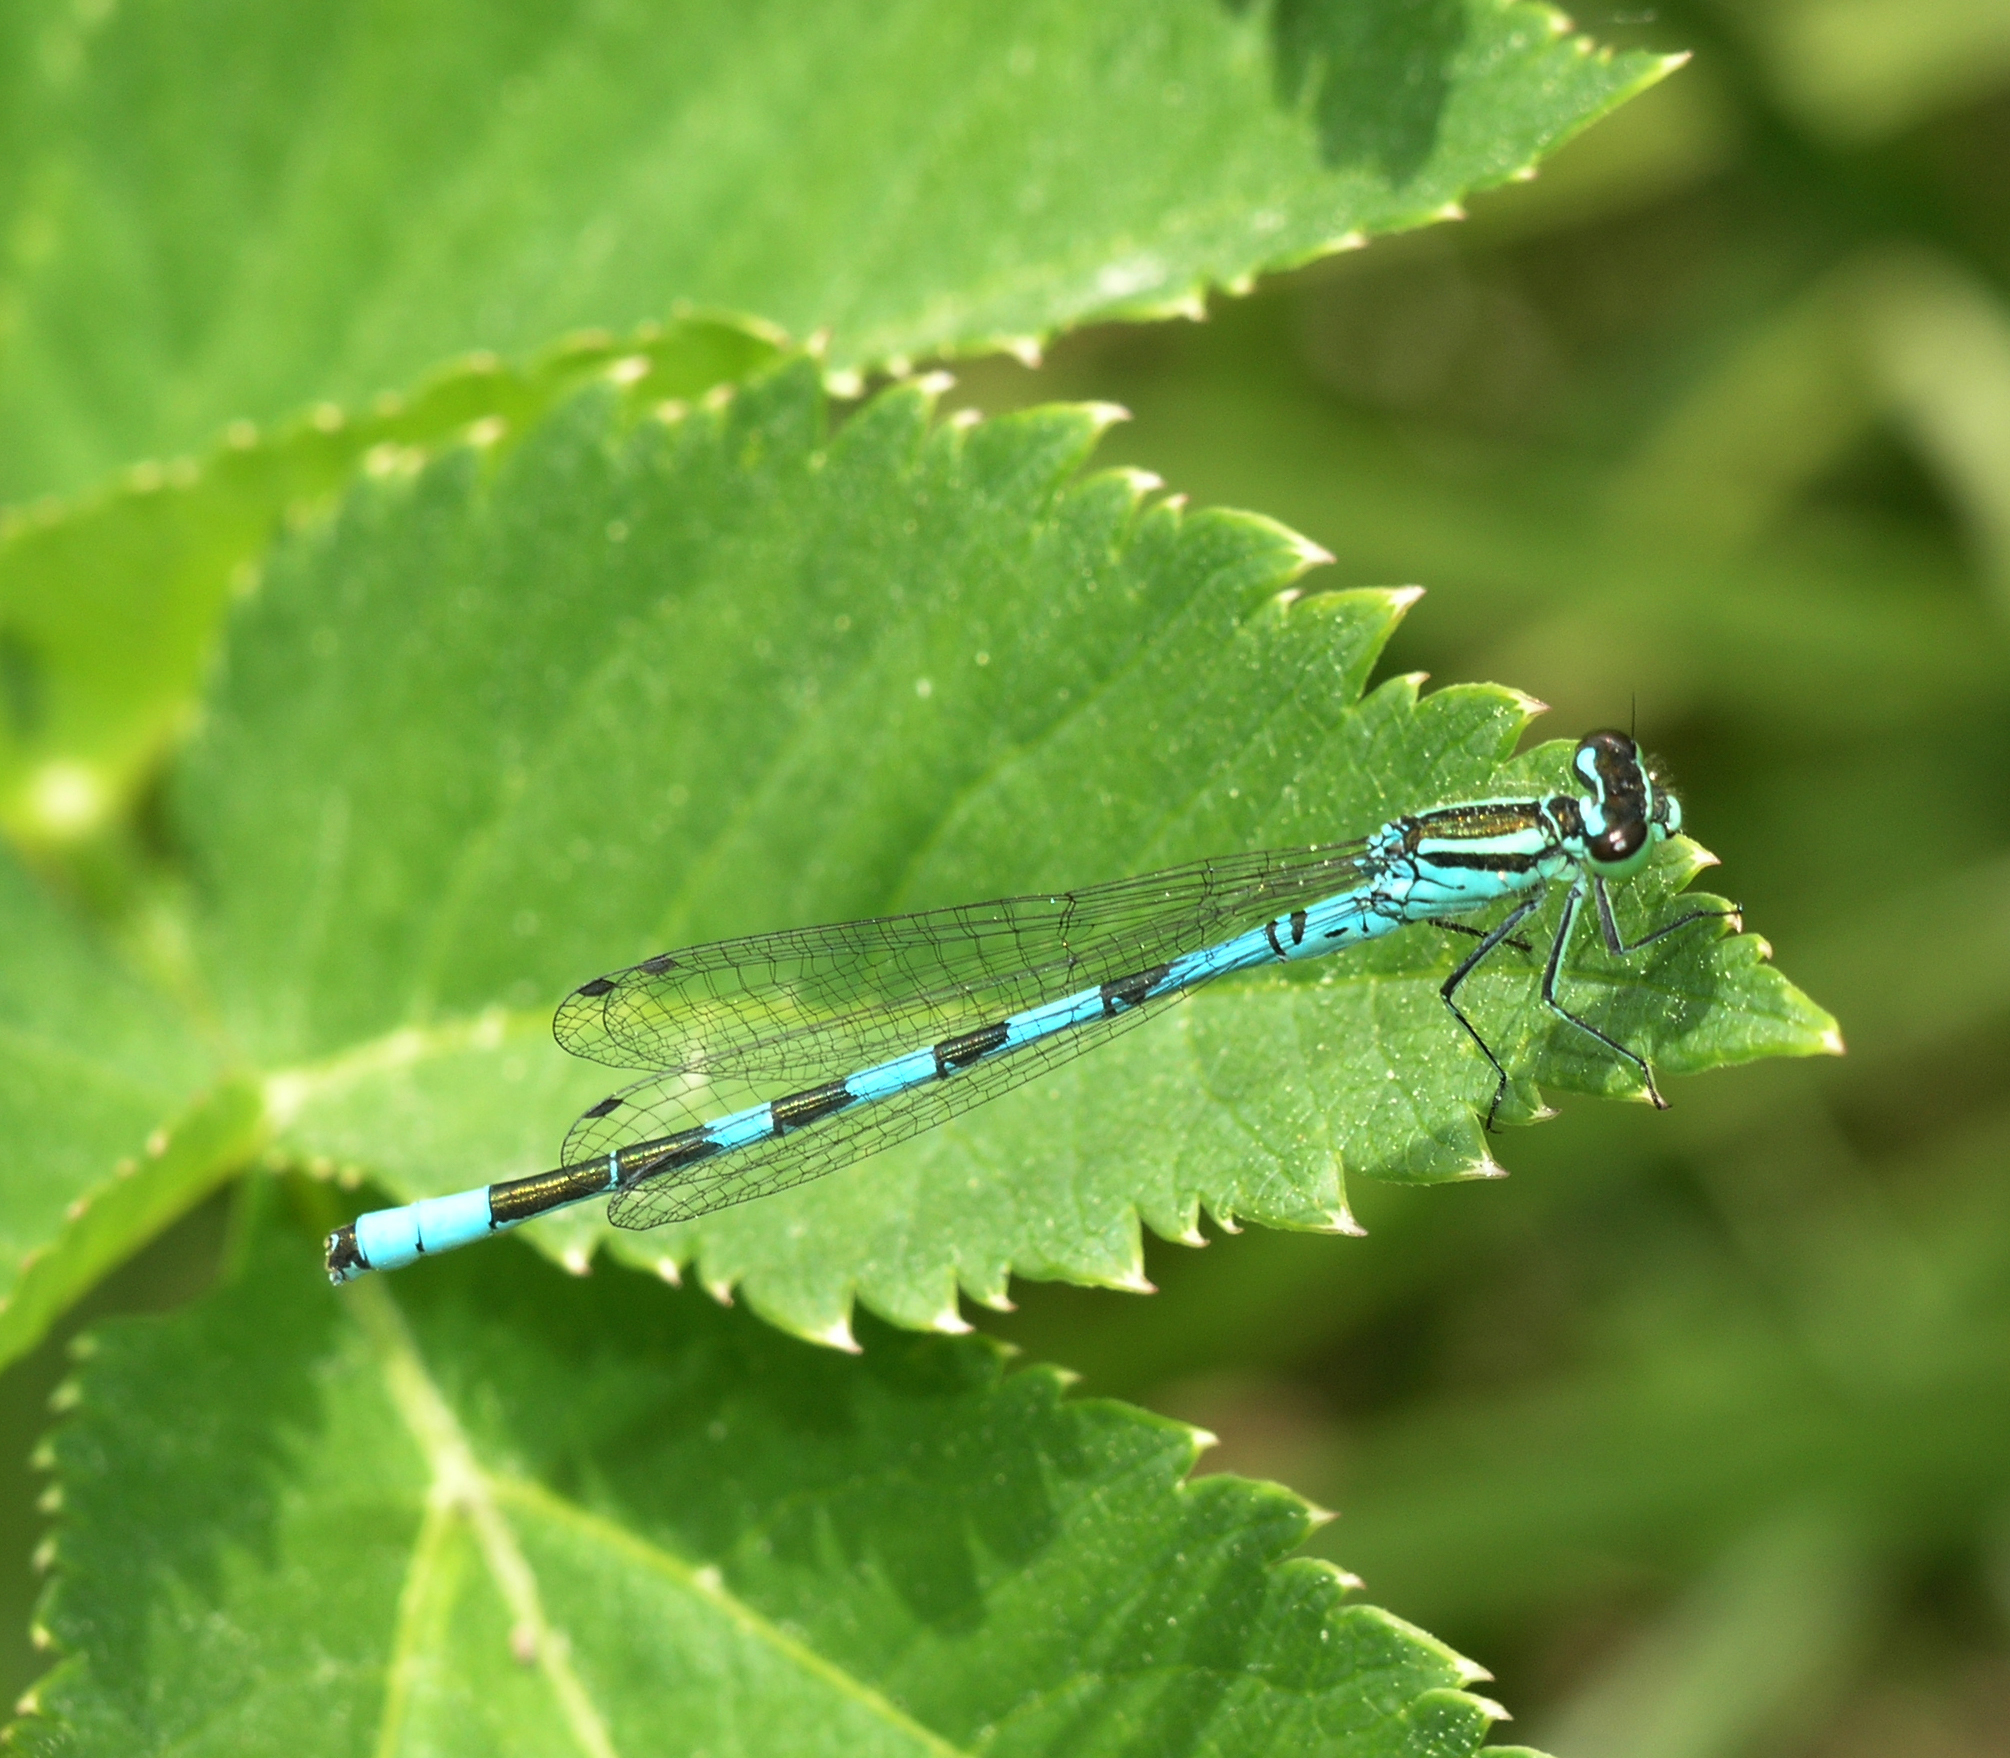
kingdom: Animalia
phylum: Arthropoda
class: Insecta
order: Odonata
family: Coenagrionidae
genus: Coenagrion
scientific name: Coenagrion hastulatum
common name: Spearhead bluet
